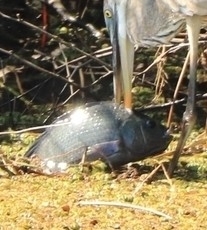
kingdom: Animalia
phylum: Chordata
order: Perciformes
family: Cichlidae
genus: Oreochromis
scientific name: Oreochromis niloticus
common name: Nile tilapia
